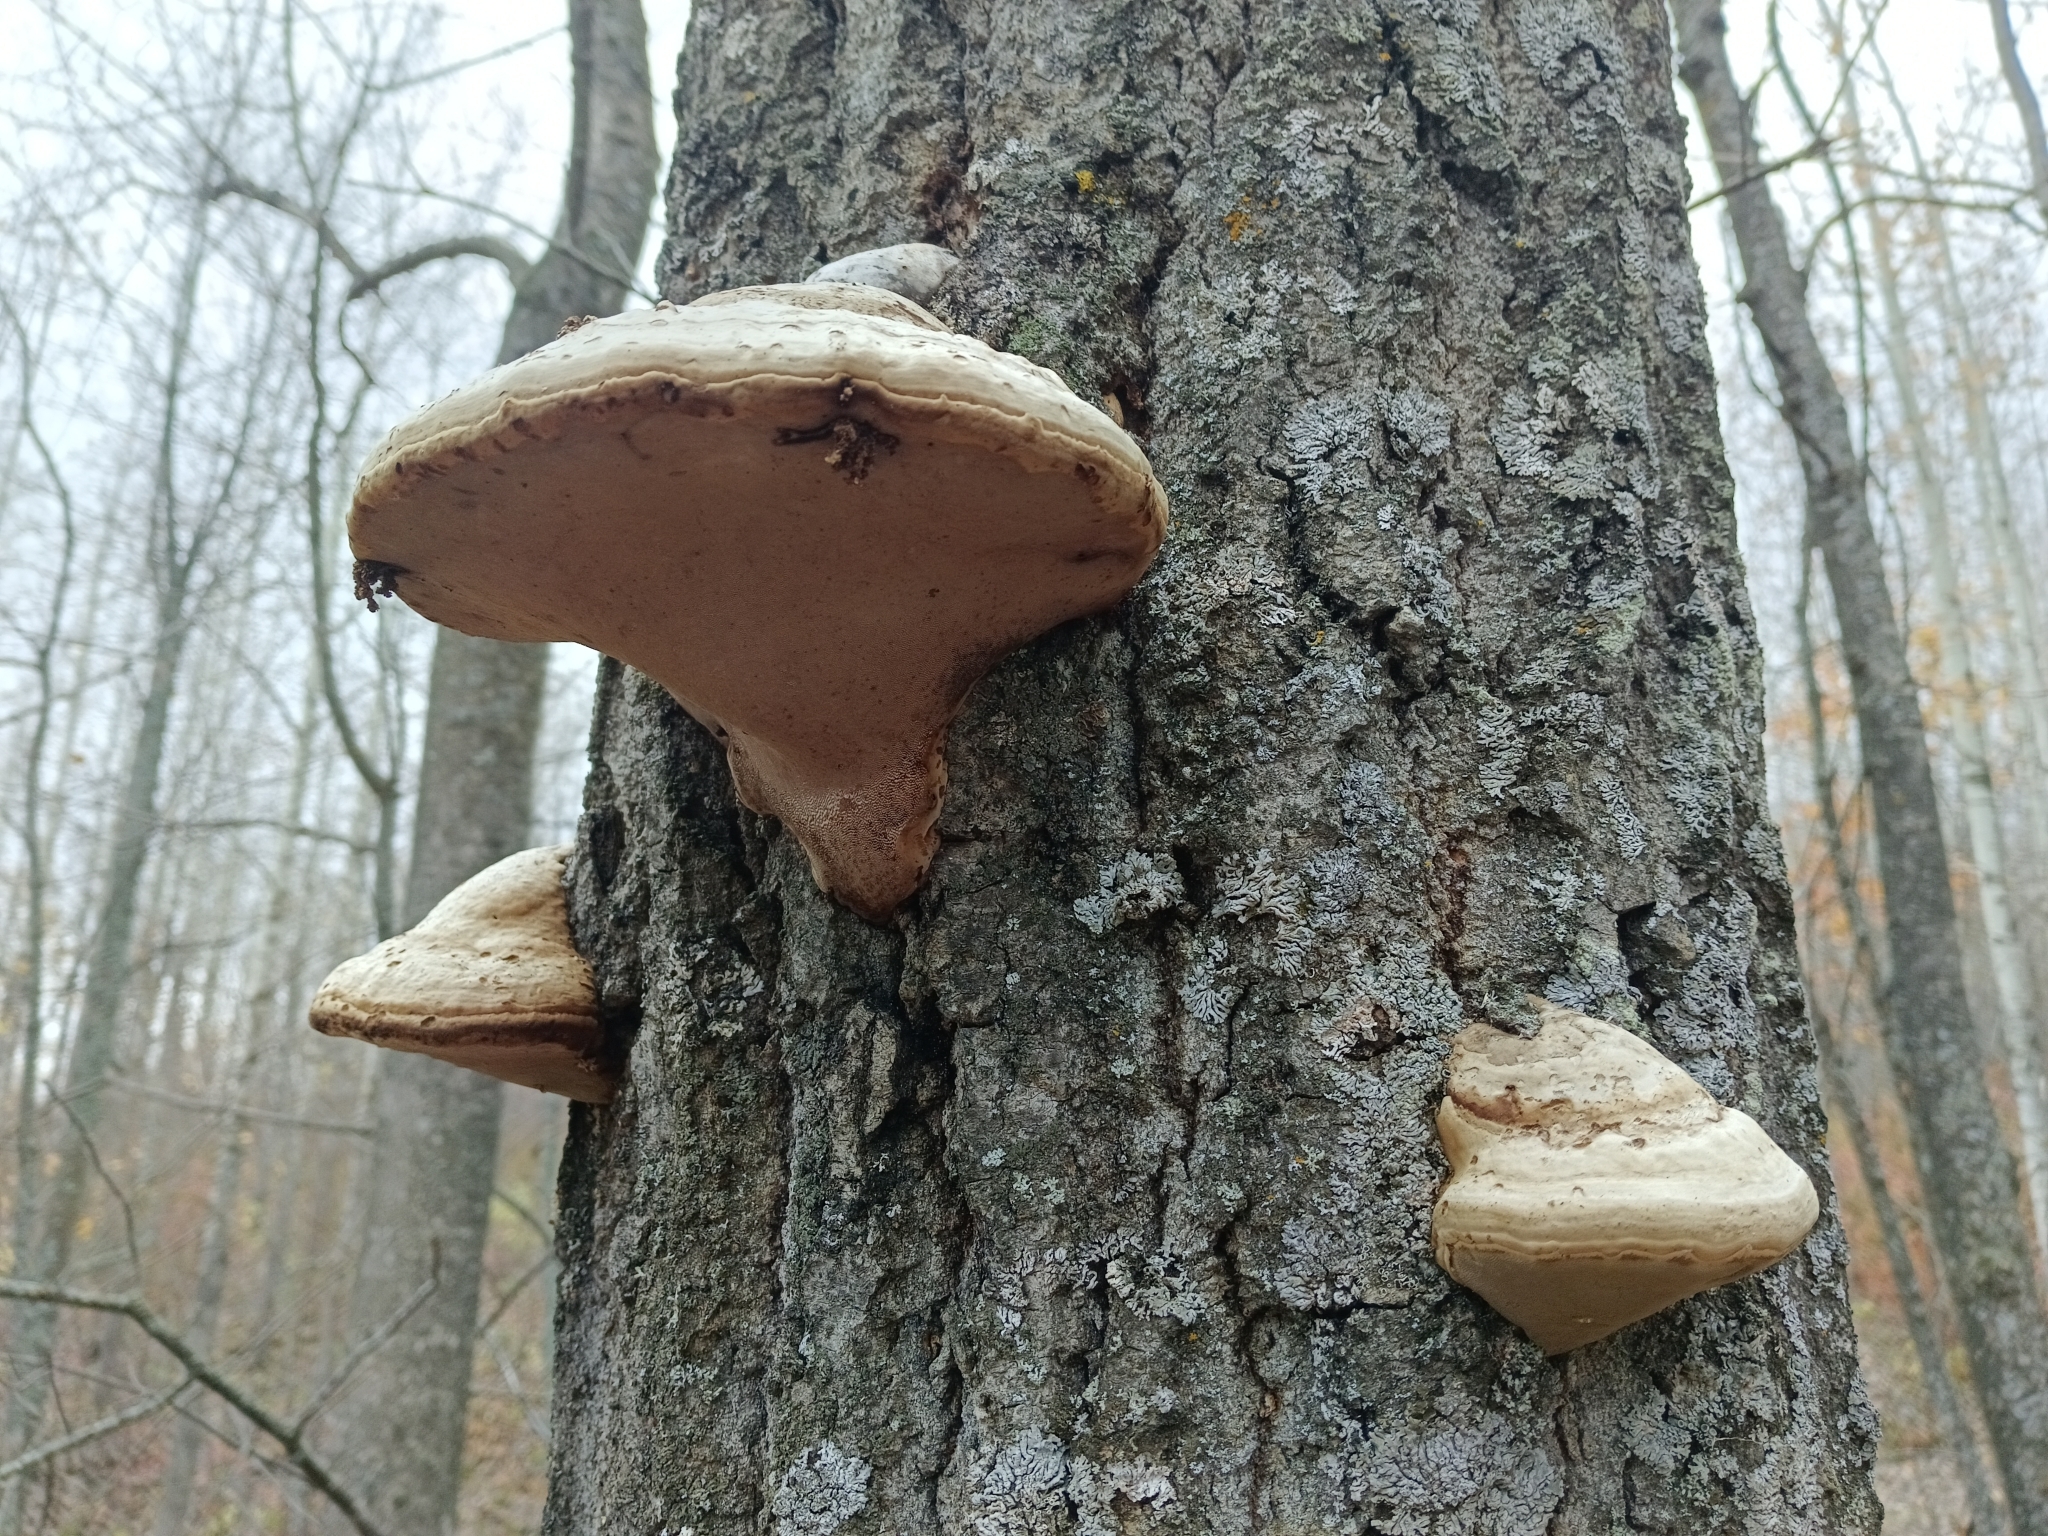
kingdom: Fungi
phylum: Basidiomycota
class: Agaricomycetes
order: Polyporales
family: Polyporaceae
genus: Fomes
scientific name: Fomes fomentarius
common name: Hoof fungus
